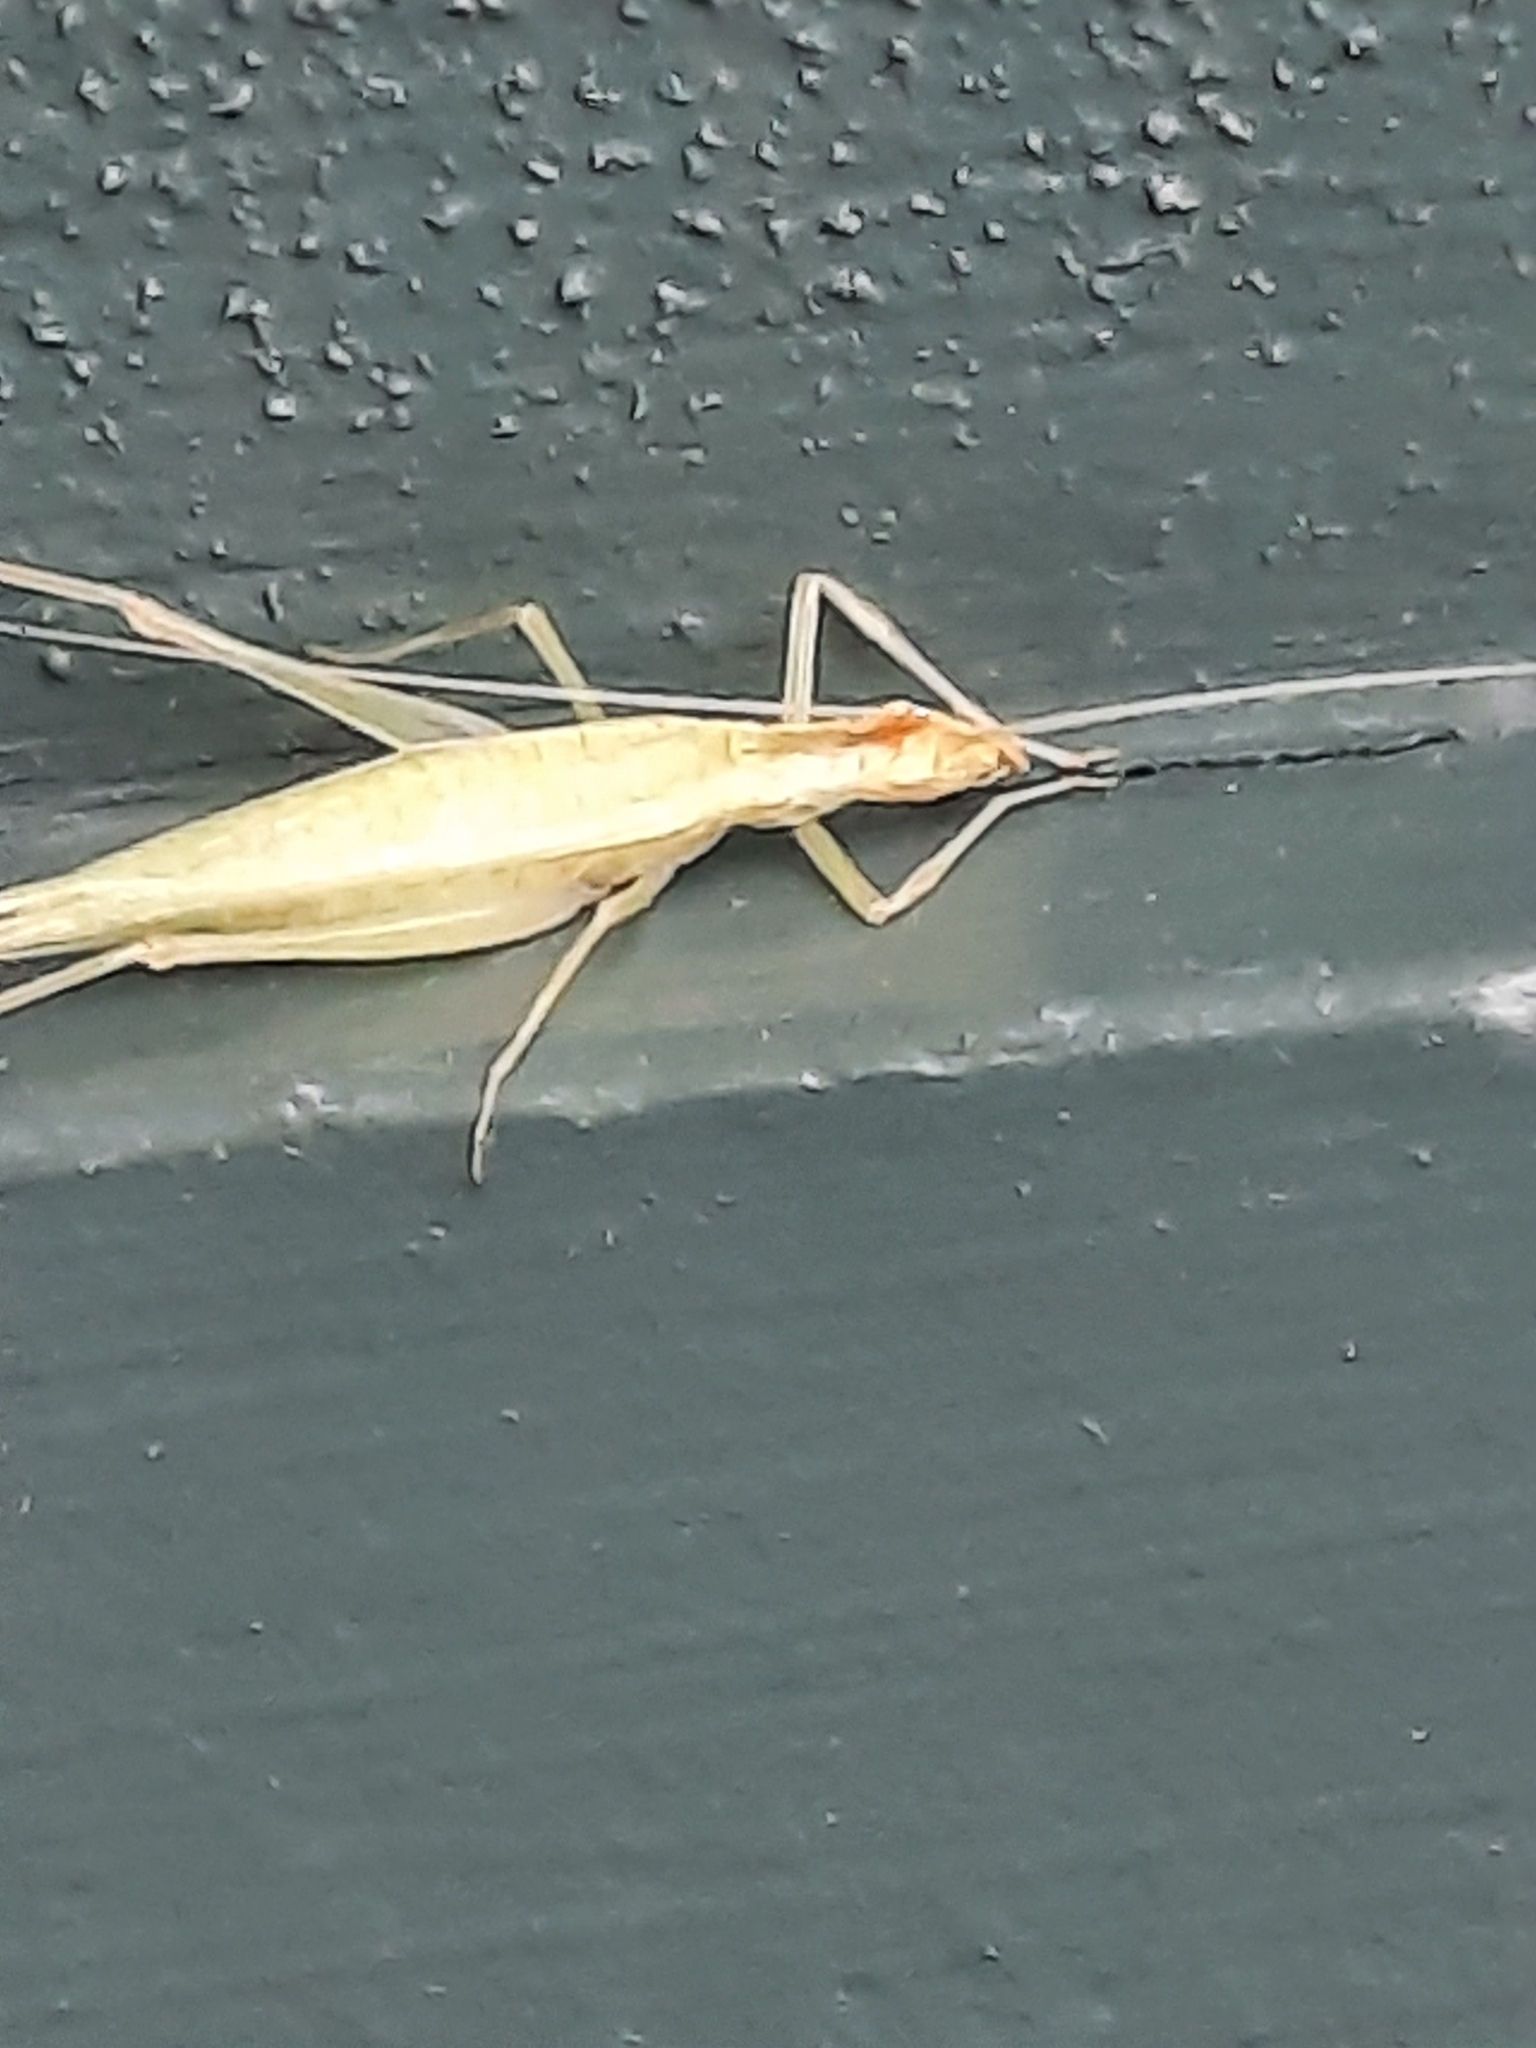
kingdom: Animalia
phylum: Arthropoda
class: Insecta
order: Orthoptera
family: Gryllidae
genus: Oecanthus
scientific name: Oecanthus niveus
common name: Narrow-winged tree cricket
